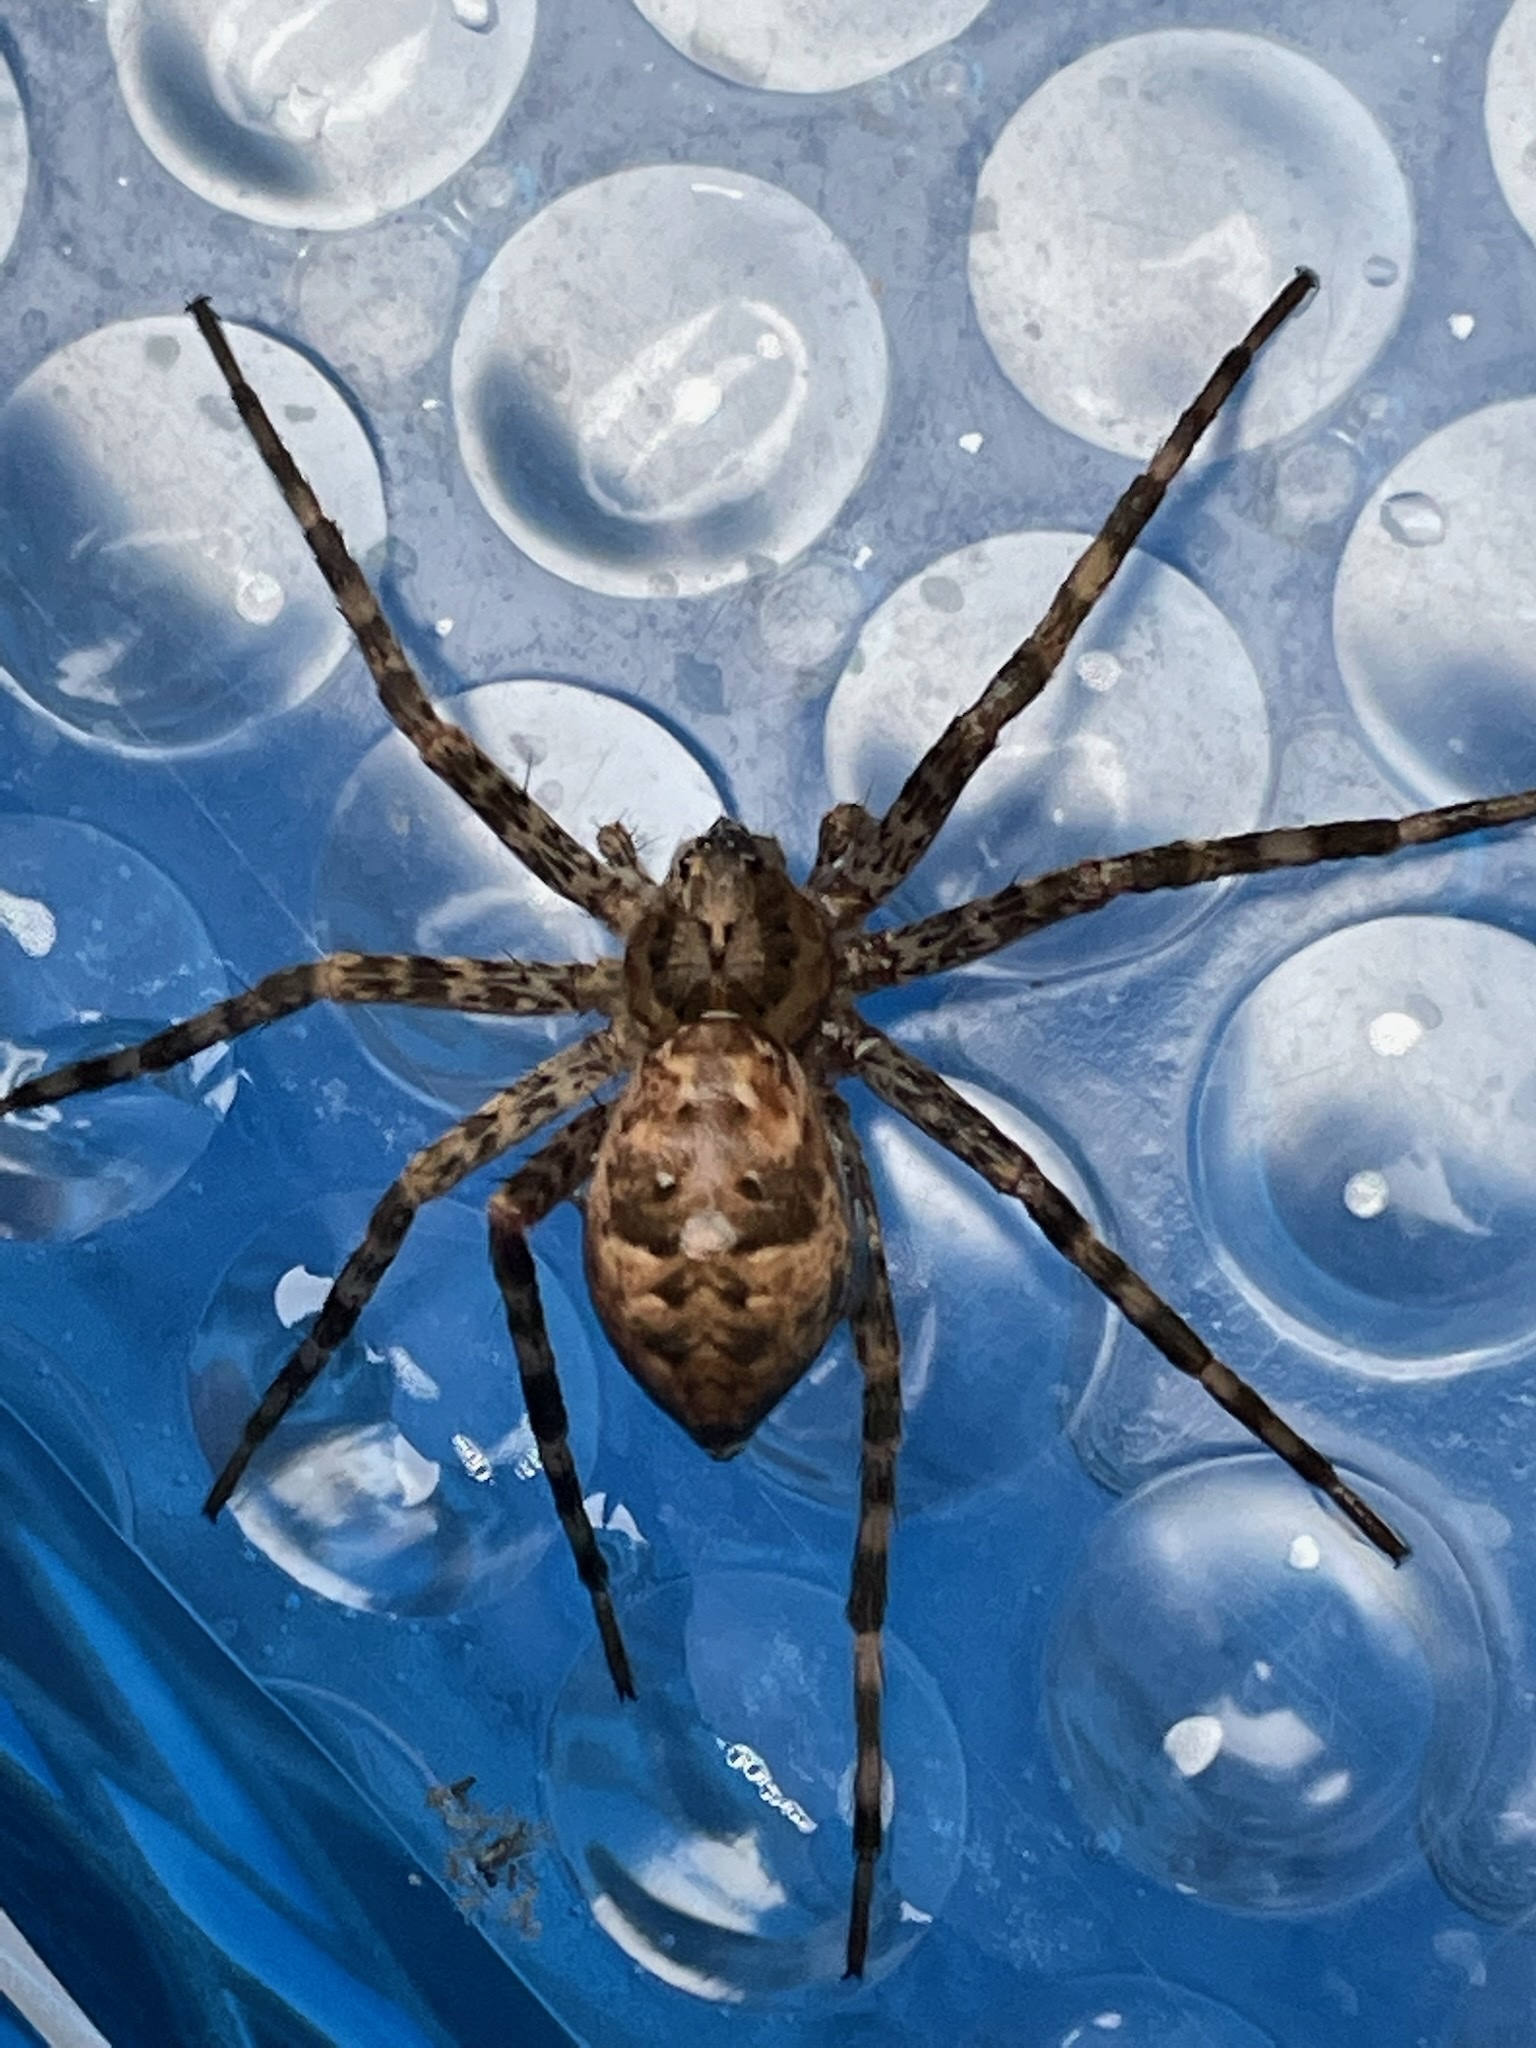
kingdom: Animalia
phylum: Arthropoda
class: Arachnida
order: Araneae
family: Pisauridae
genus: Dolomedes
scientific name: Dolomedes tenebrosus
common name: Dark fishing spider
